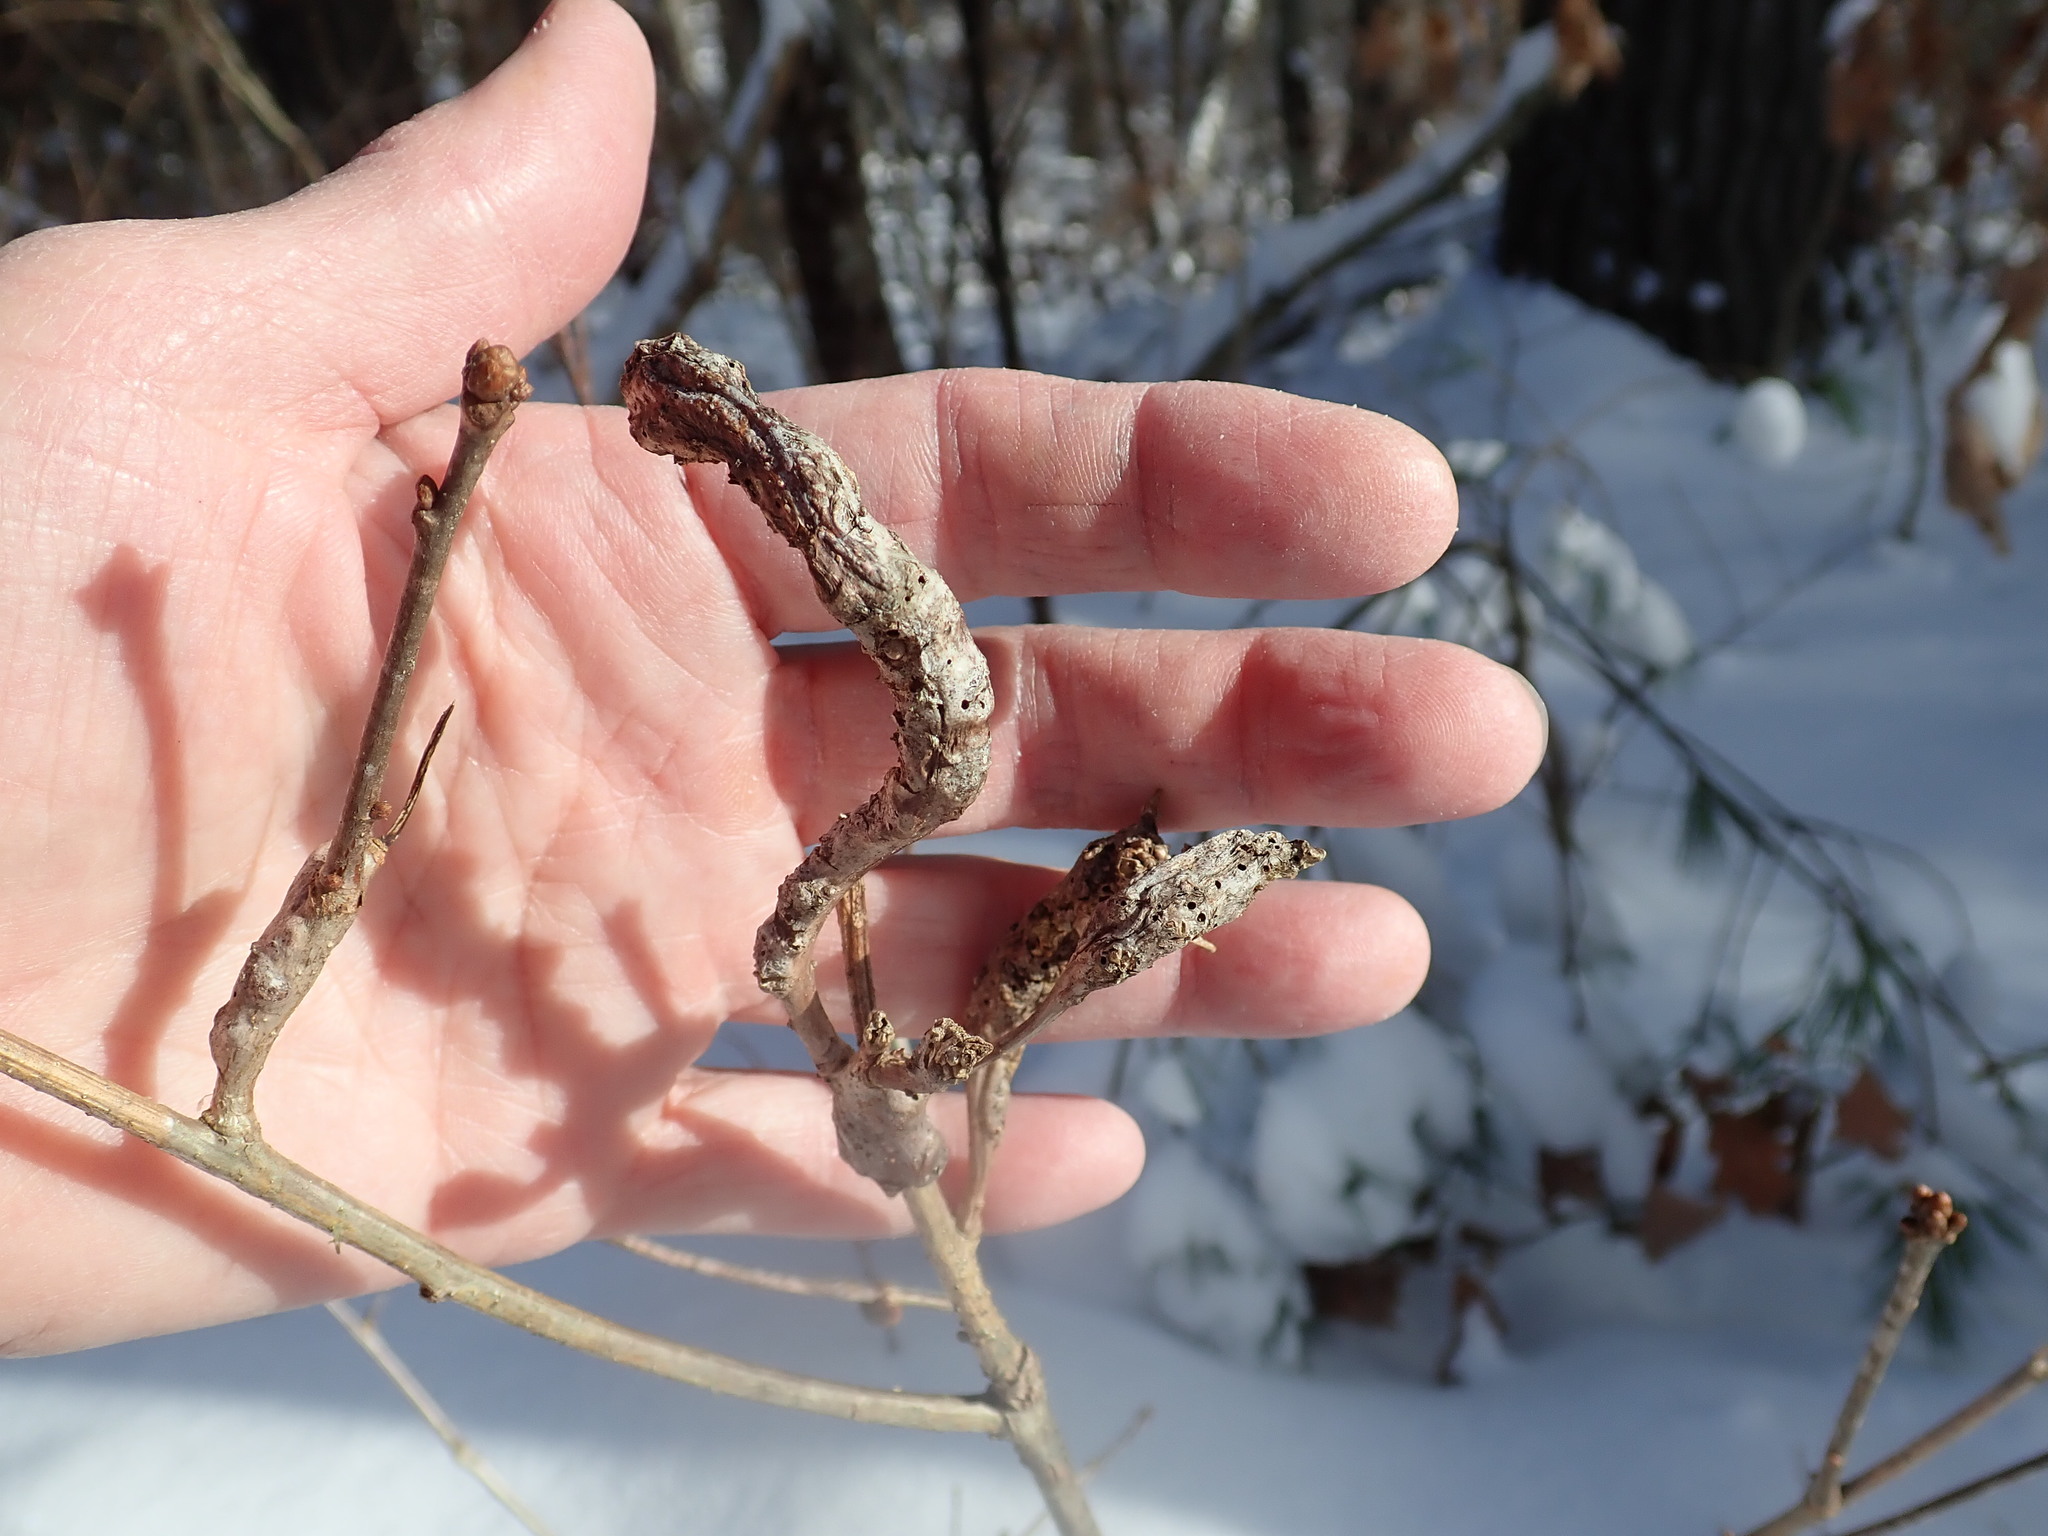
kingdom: Animalia
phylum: Arthropoda
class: Insecta
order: Hymenoptera
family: Cynipidae
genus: Neuroterus
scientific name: Neuroterus quercusbaccarum
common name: Common spangle gall
